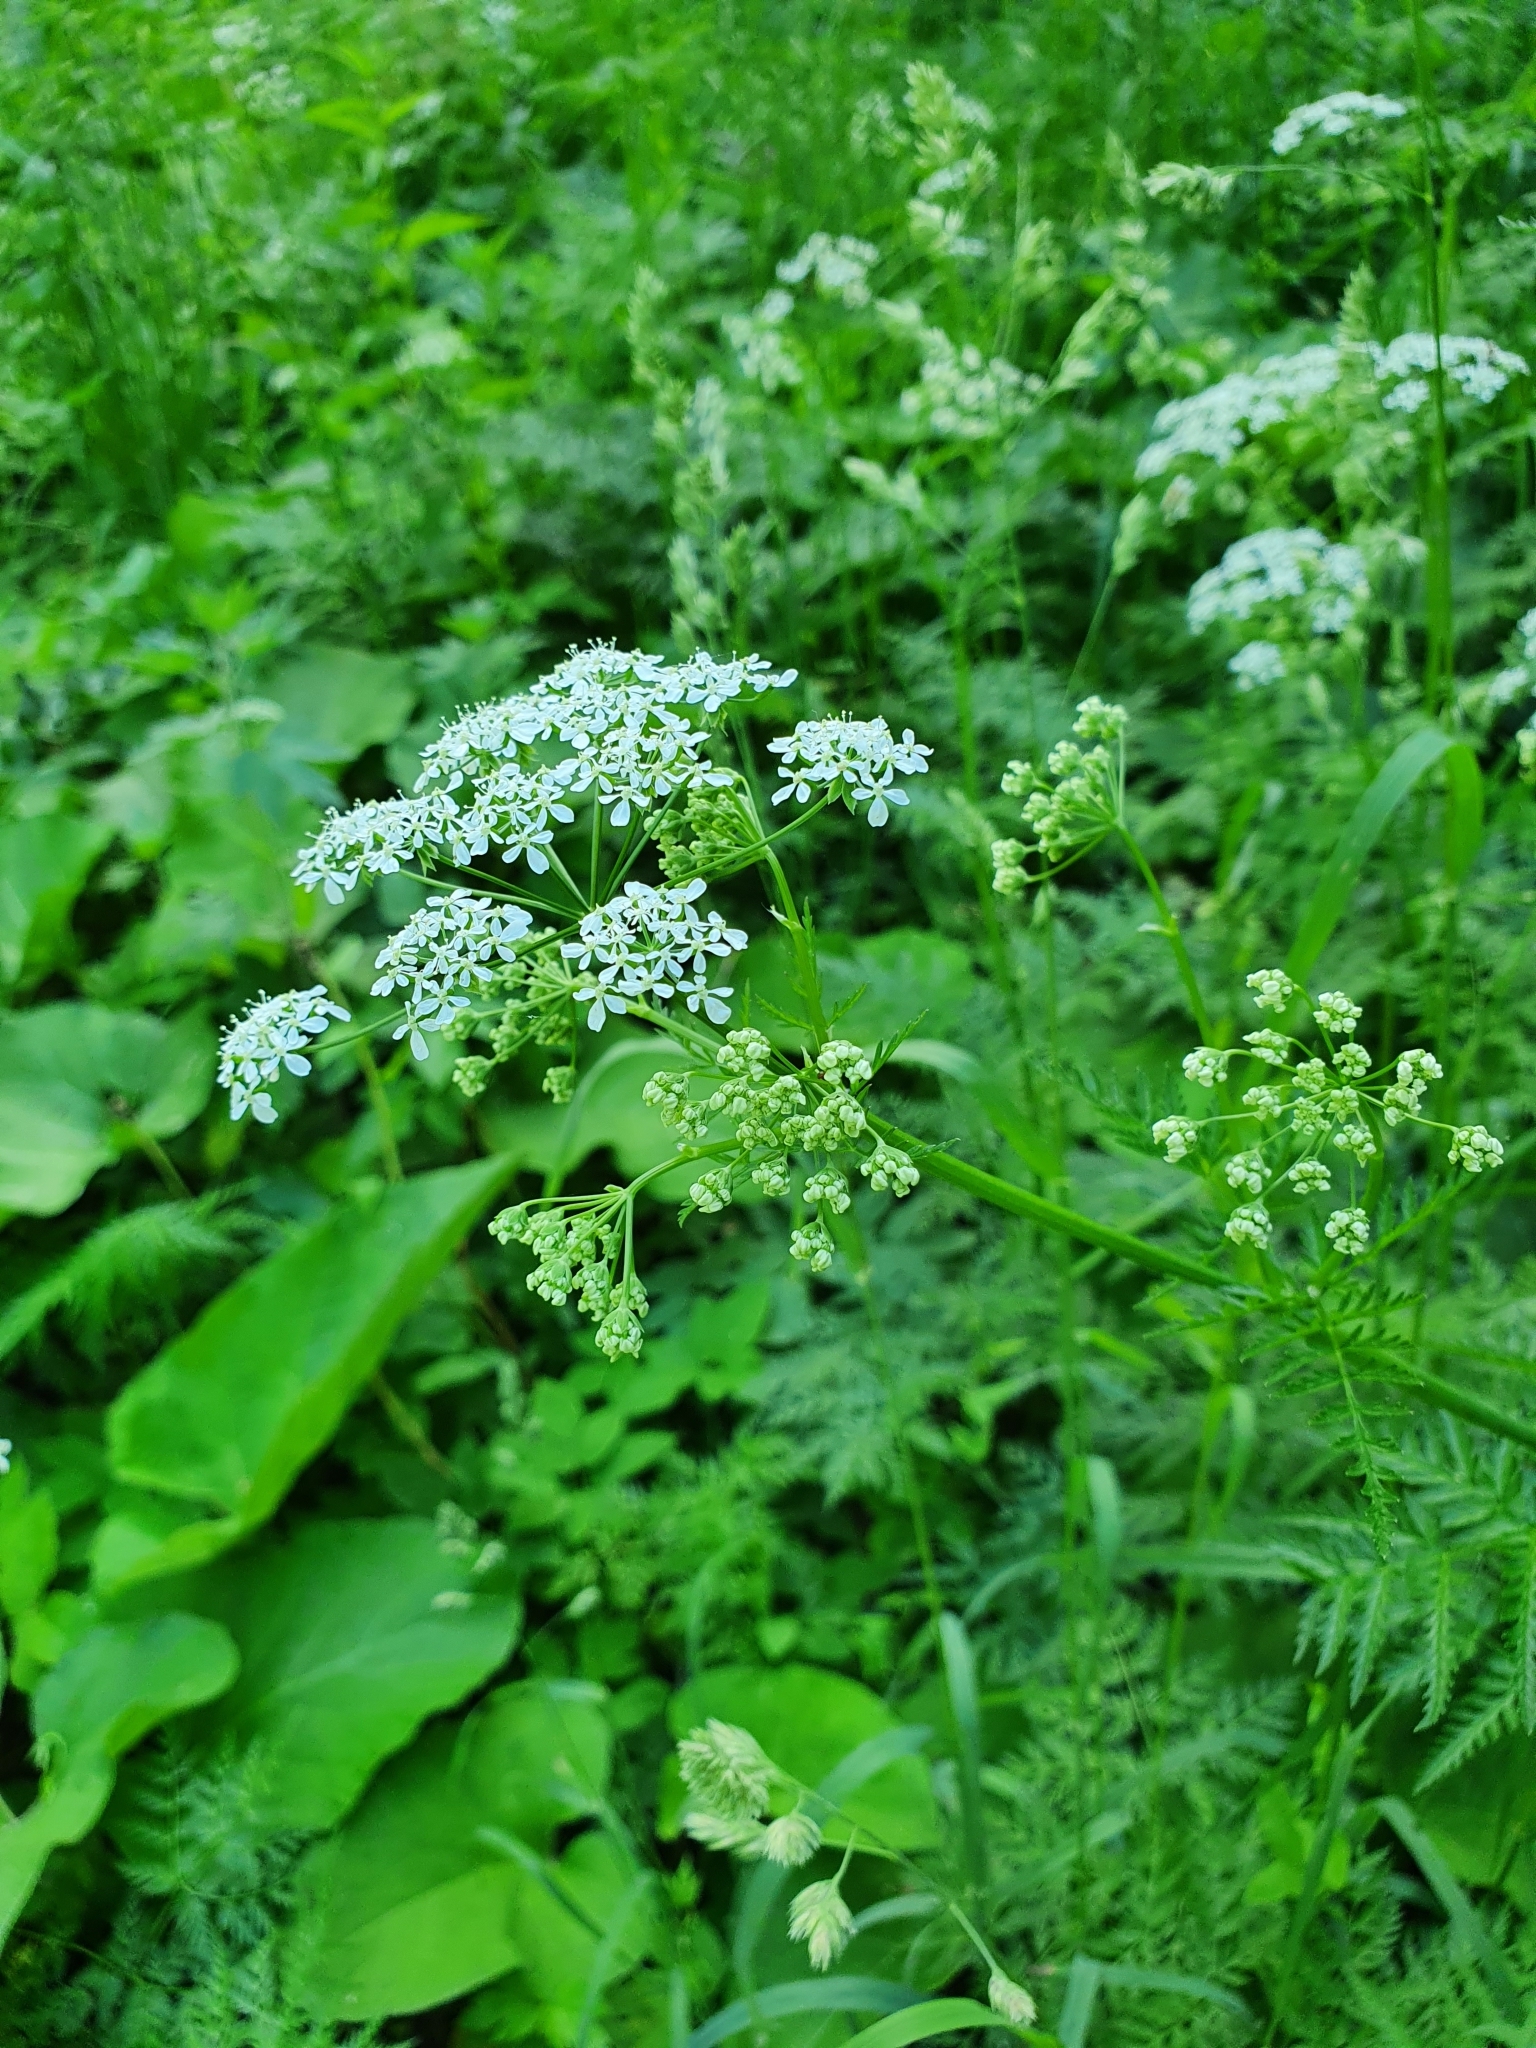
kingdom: Plantae
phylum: Tracheophyta
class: Magnoliopsida
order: Apiales
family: Apiaceae
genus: Anthriscus
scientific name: Anthriscus sylvestris
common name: Cow parsley
